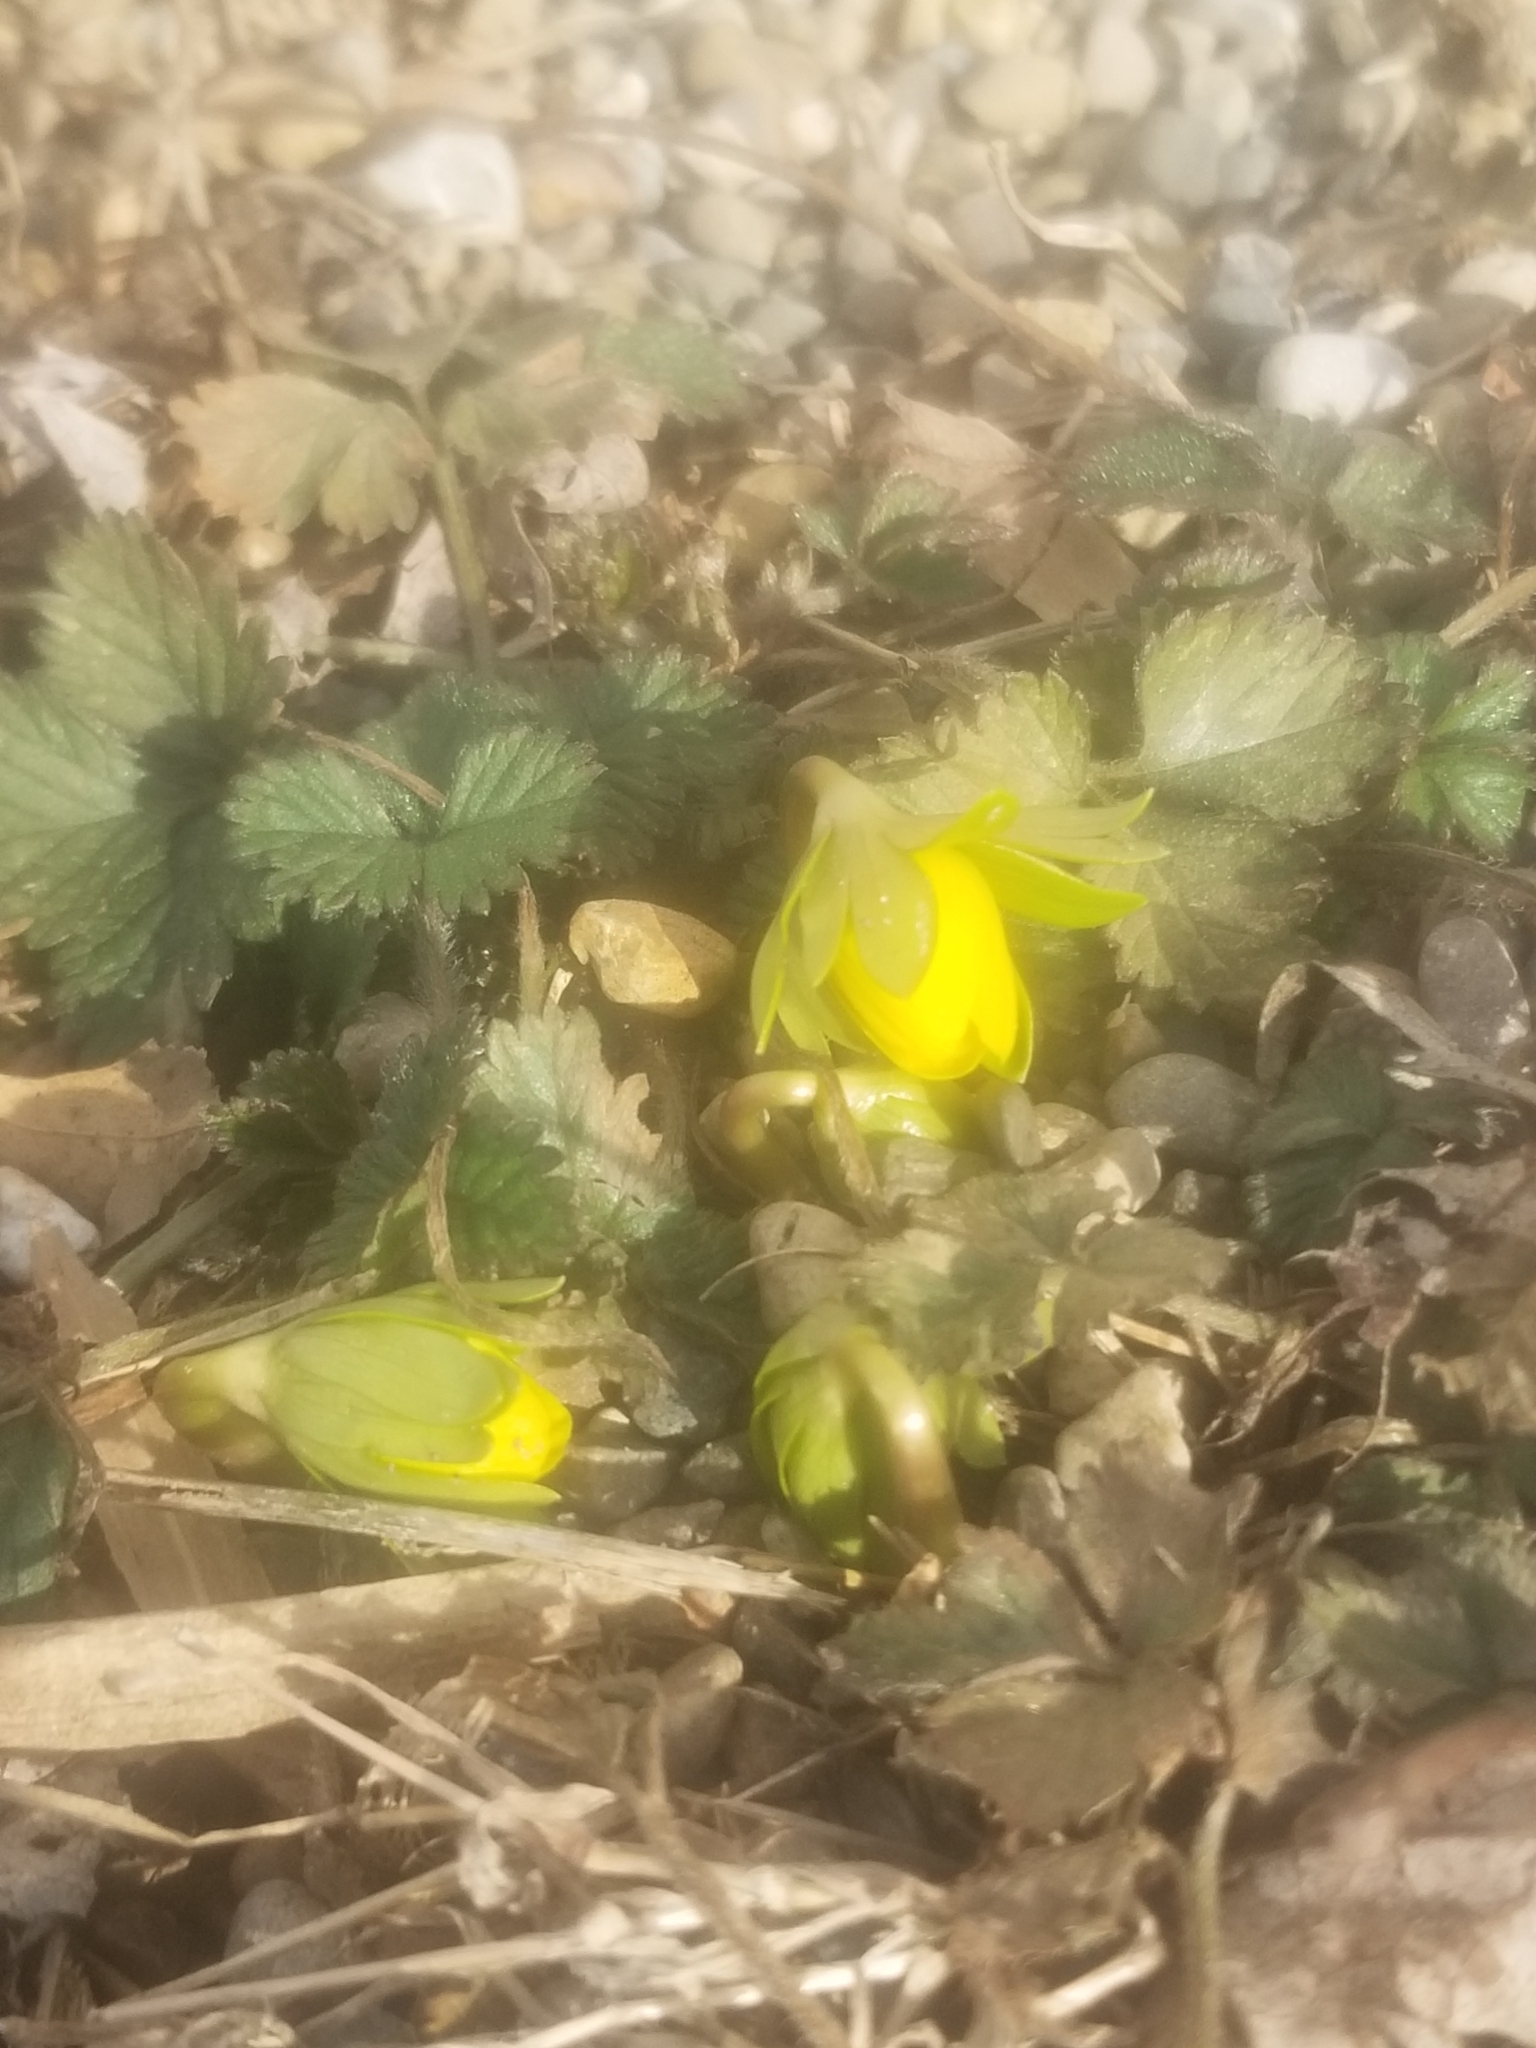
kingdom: Plantae
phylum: Tracheophyta
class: Magnoliopsida
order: Ranunculales
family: Ranunculaceae
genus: Eranthis
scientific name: Eranthis hyemalis
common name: Winter aconite
